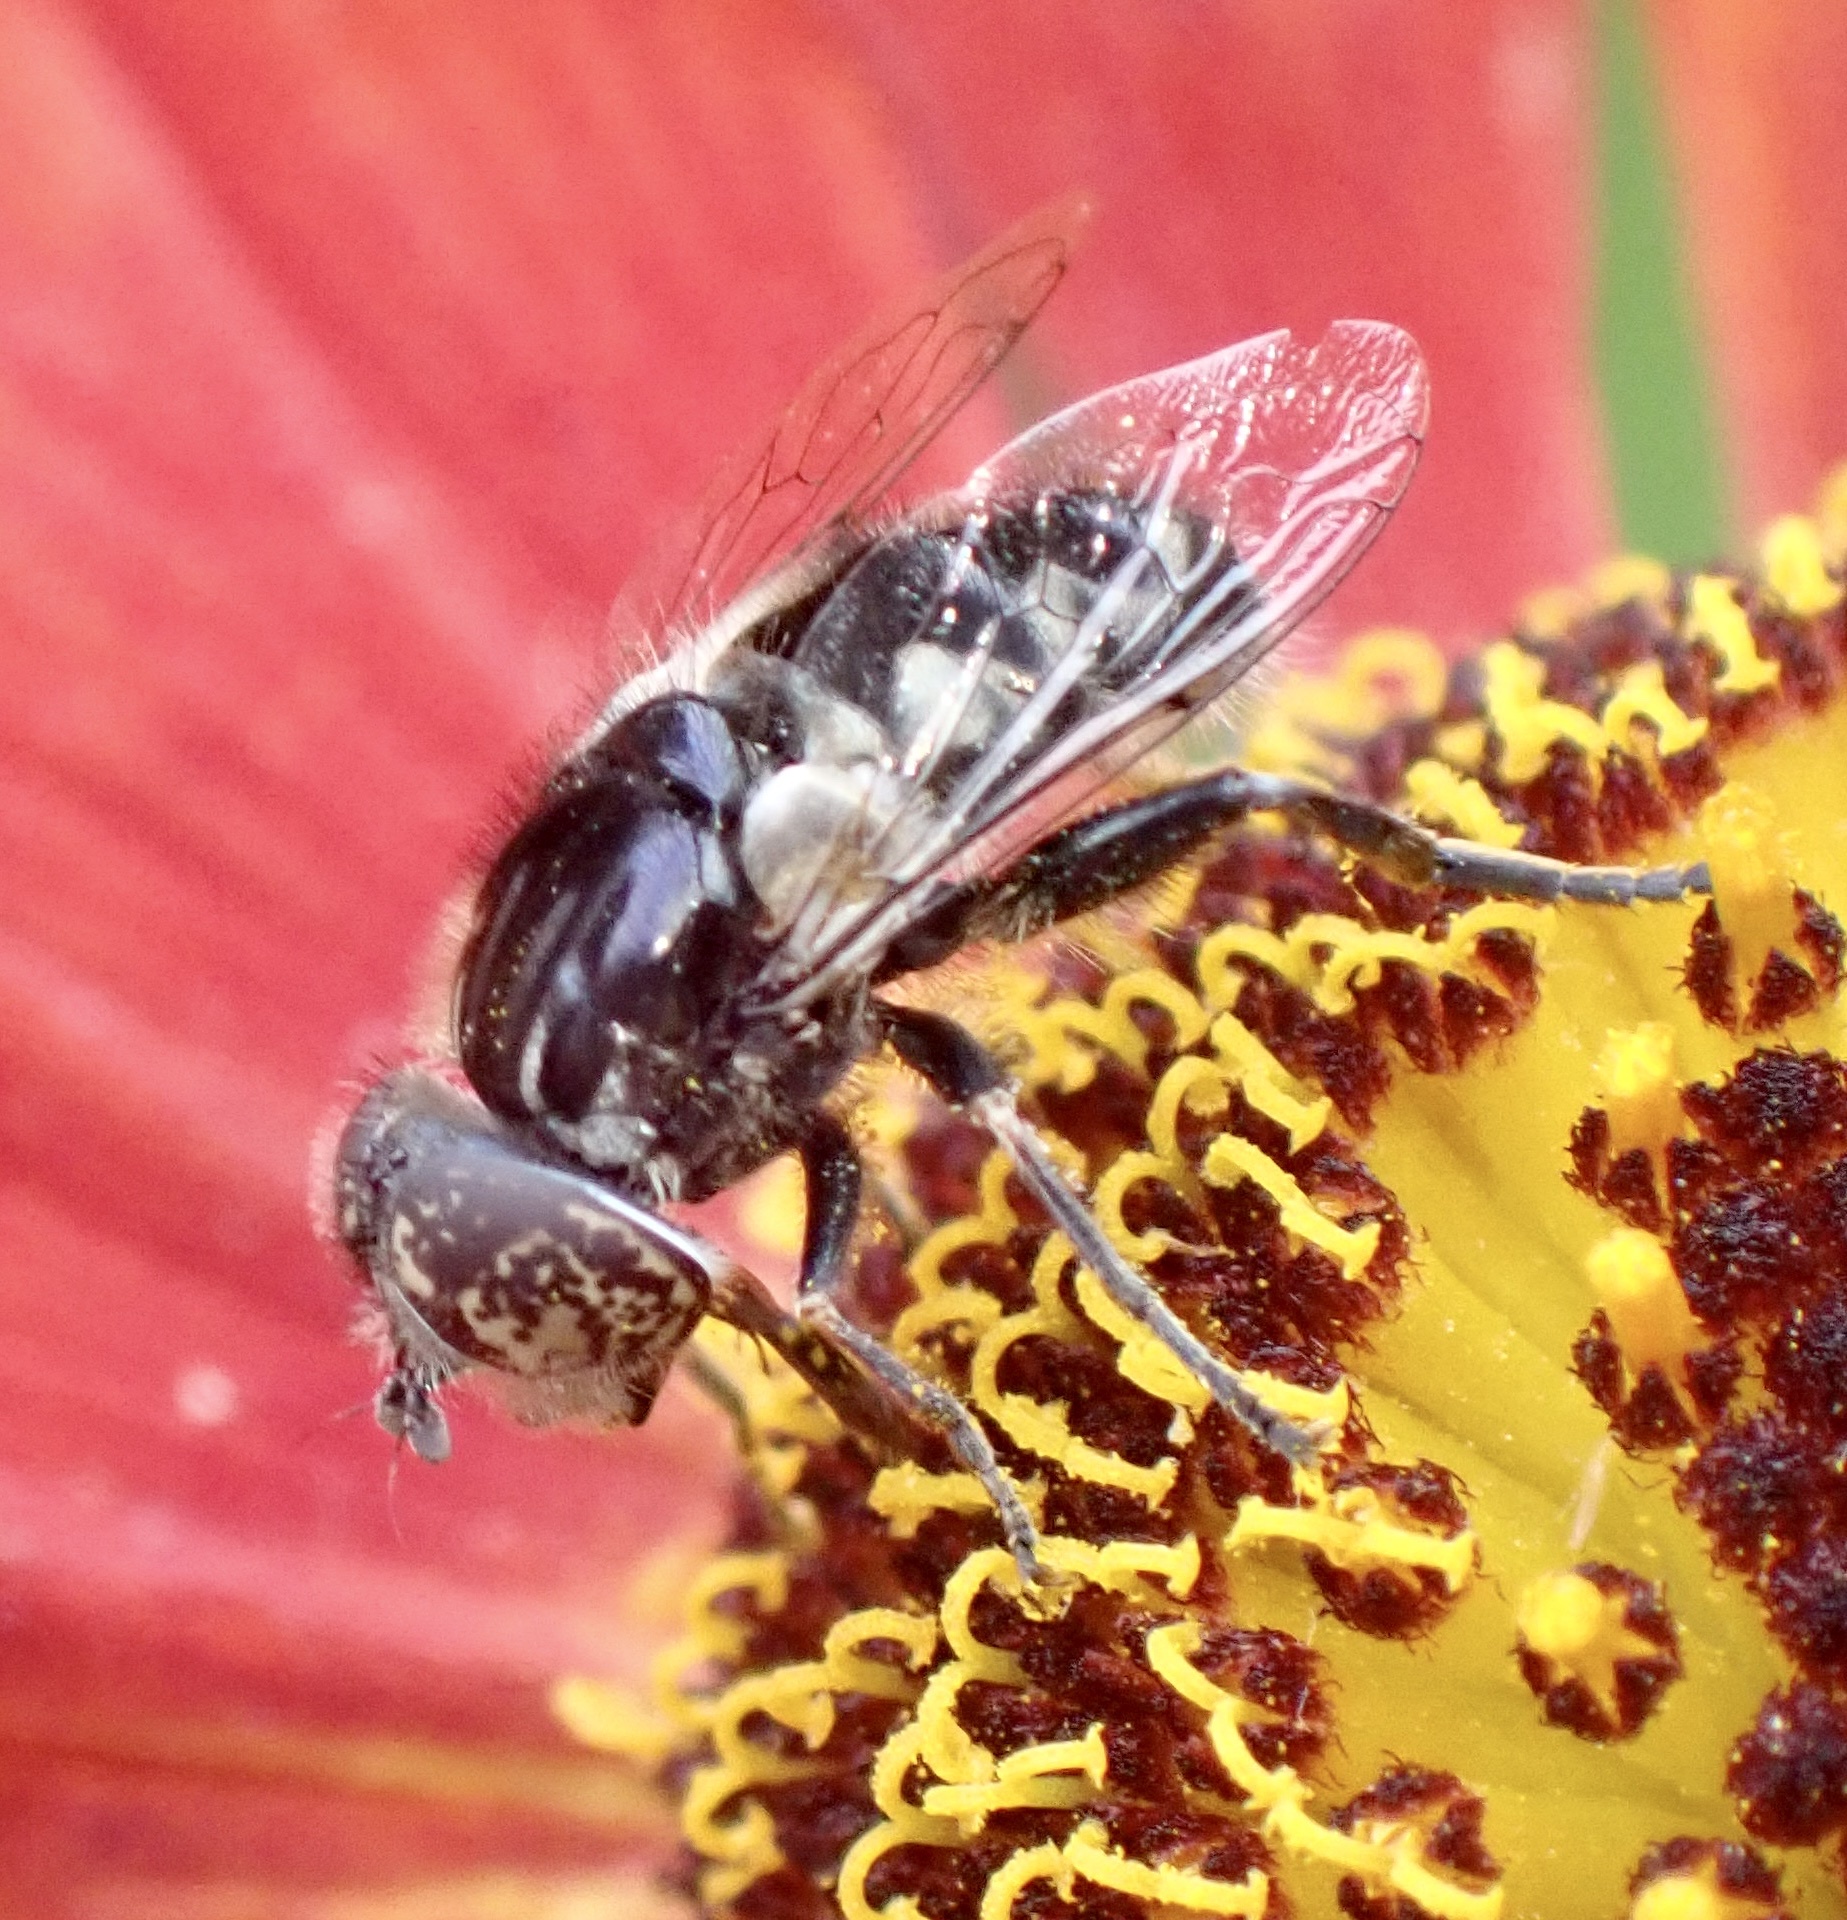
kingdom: Animalia
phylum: Arthropoda
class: Insecta
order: Diptera
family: Syrphidae
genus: Eristalinus
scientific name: Eristalinus sepulchralis
